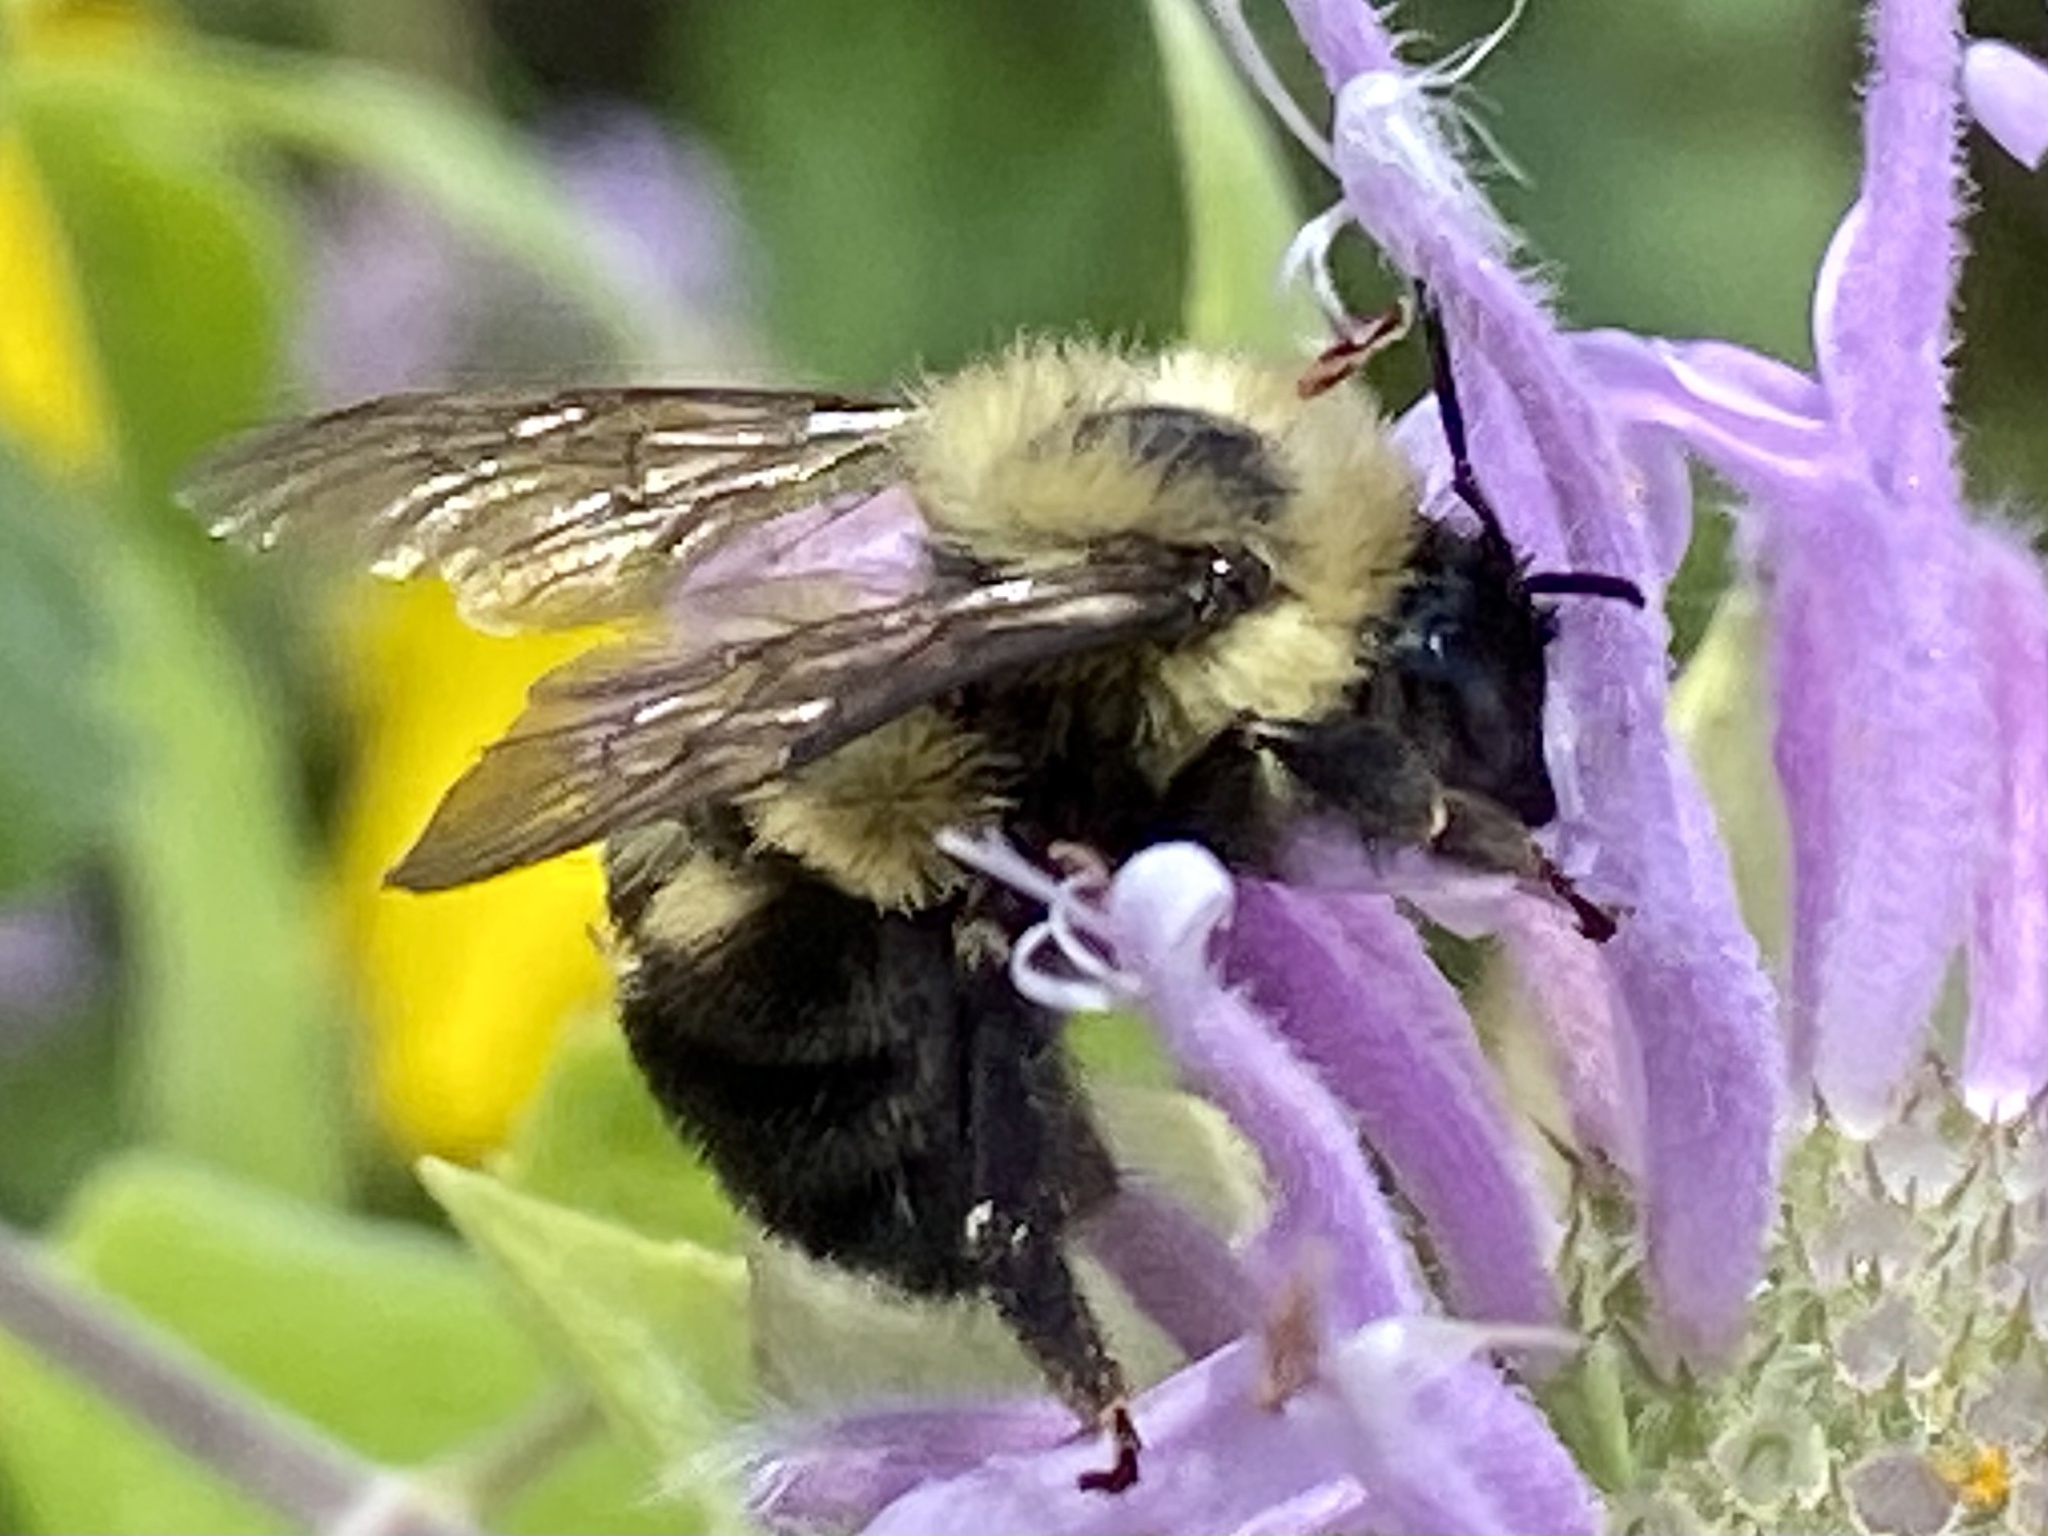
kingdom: Animalia
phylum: Arthropoda
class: Insecta
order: Hymenoptera
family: Apidae
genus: Bombus
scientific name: Bombus bimaculatus
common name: Two-spotted bumble bee
